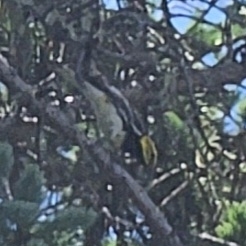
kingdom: Animalia
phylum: Chordata
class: Aves
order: Passeriformes
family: Parulidae
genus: Setophaga
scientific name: Setophaga virens
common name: Black-throated green warbler
